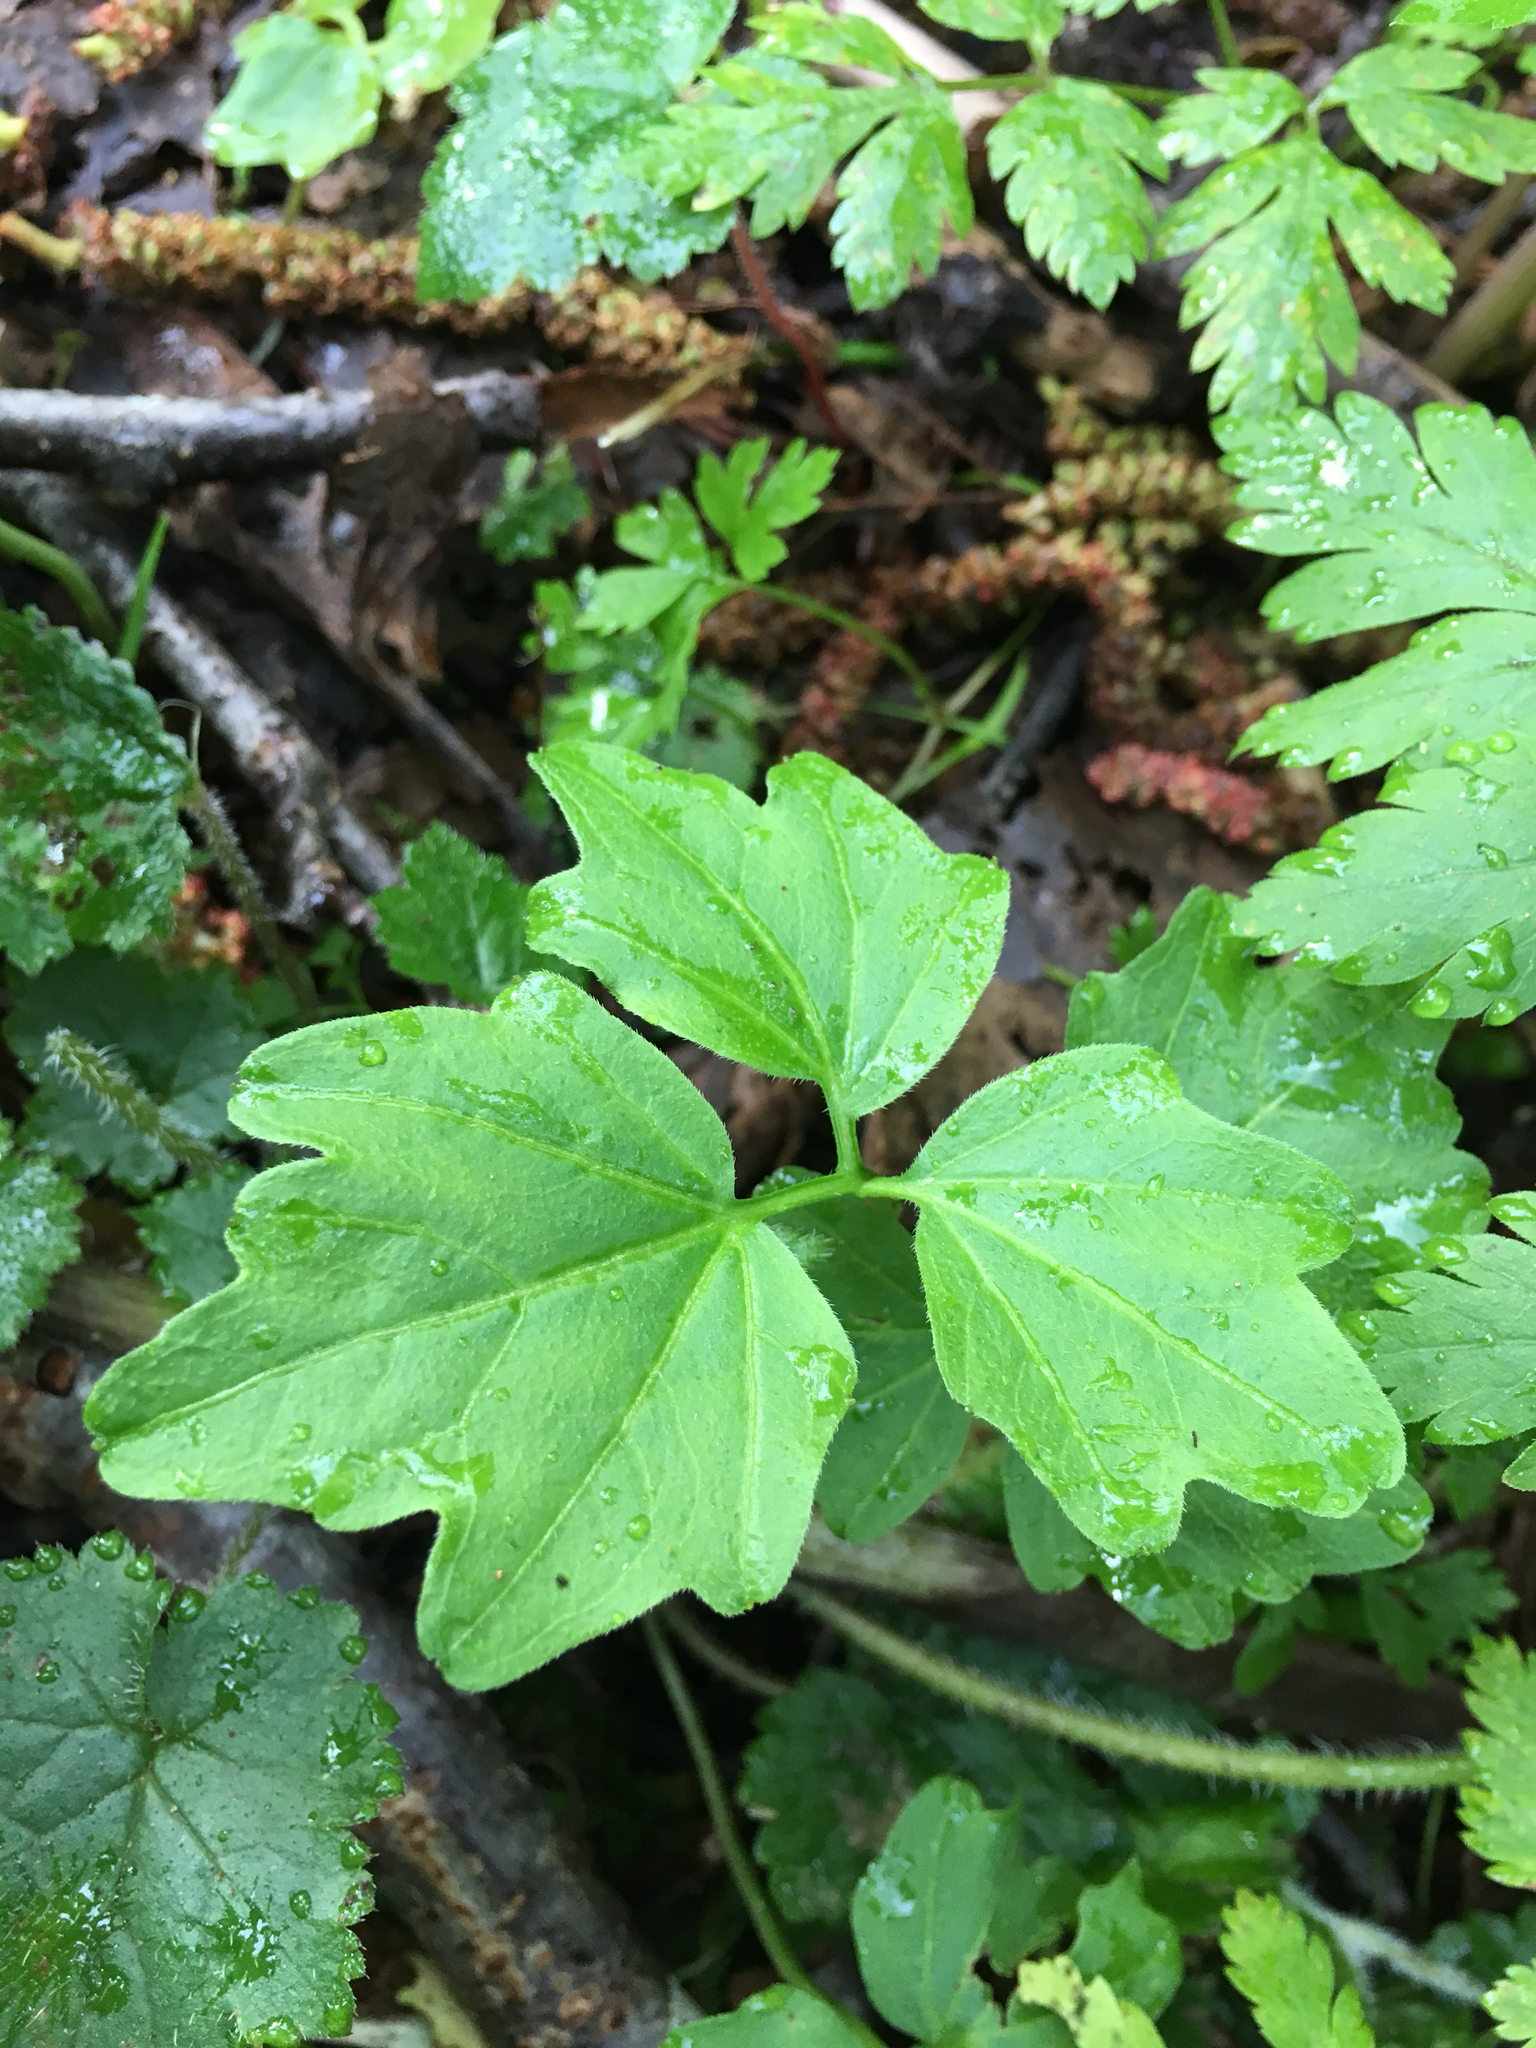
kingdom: Plantae
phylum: Tracheophyta
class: Magnoliopsida
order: Brassicales
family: Brassicaceae
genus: Cardamine
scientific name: Cardamine angulata
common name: Angled bittercress
